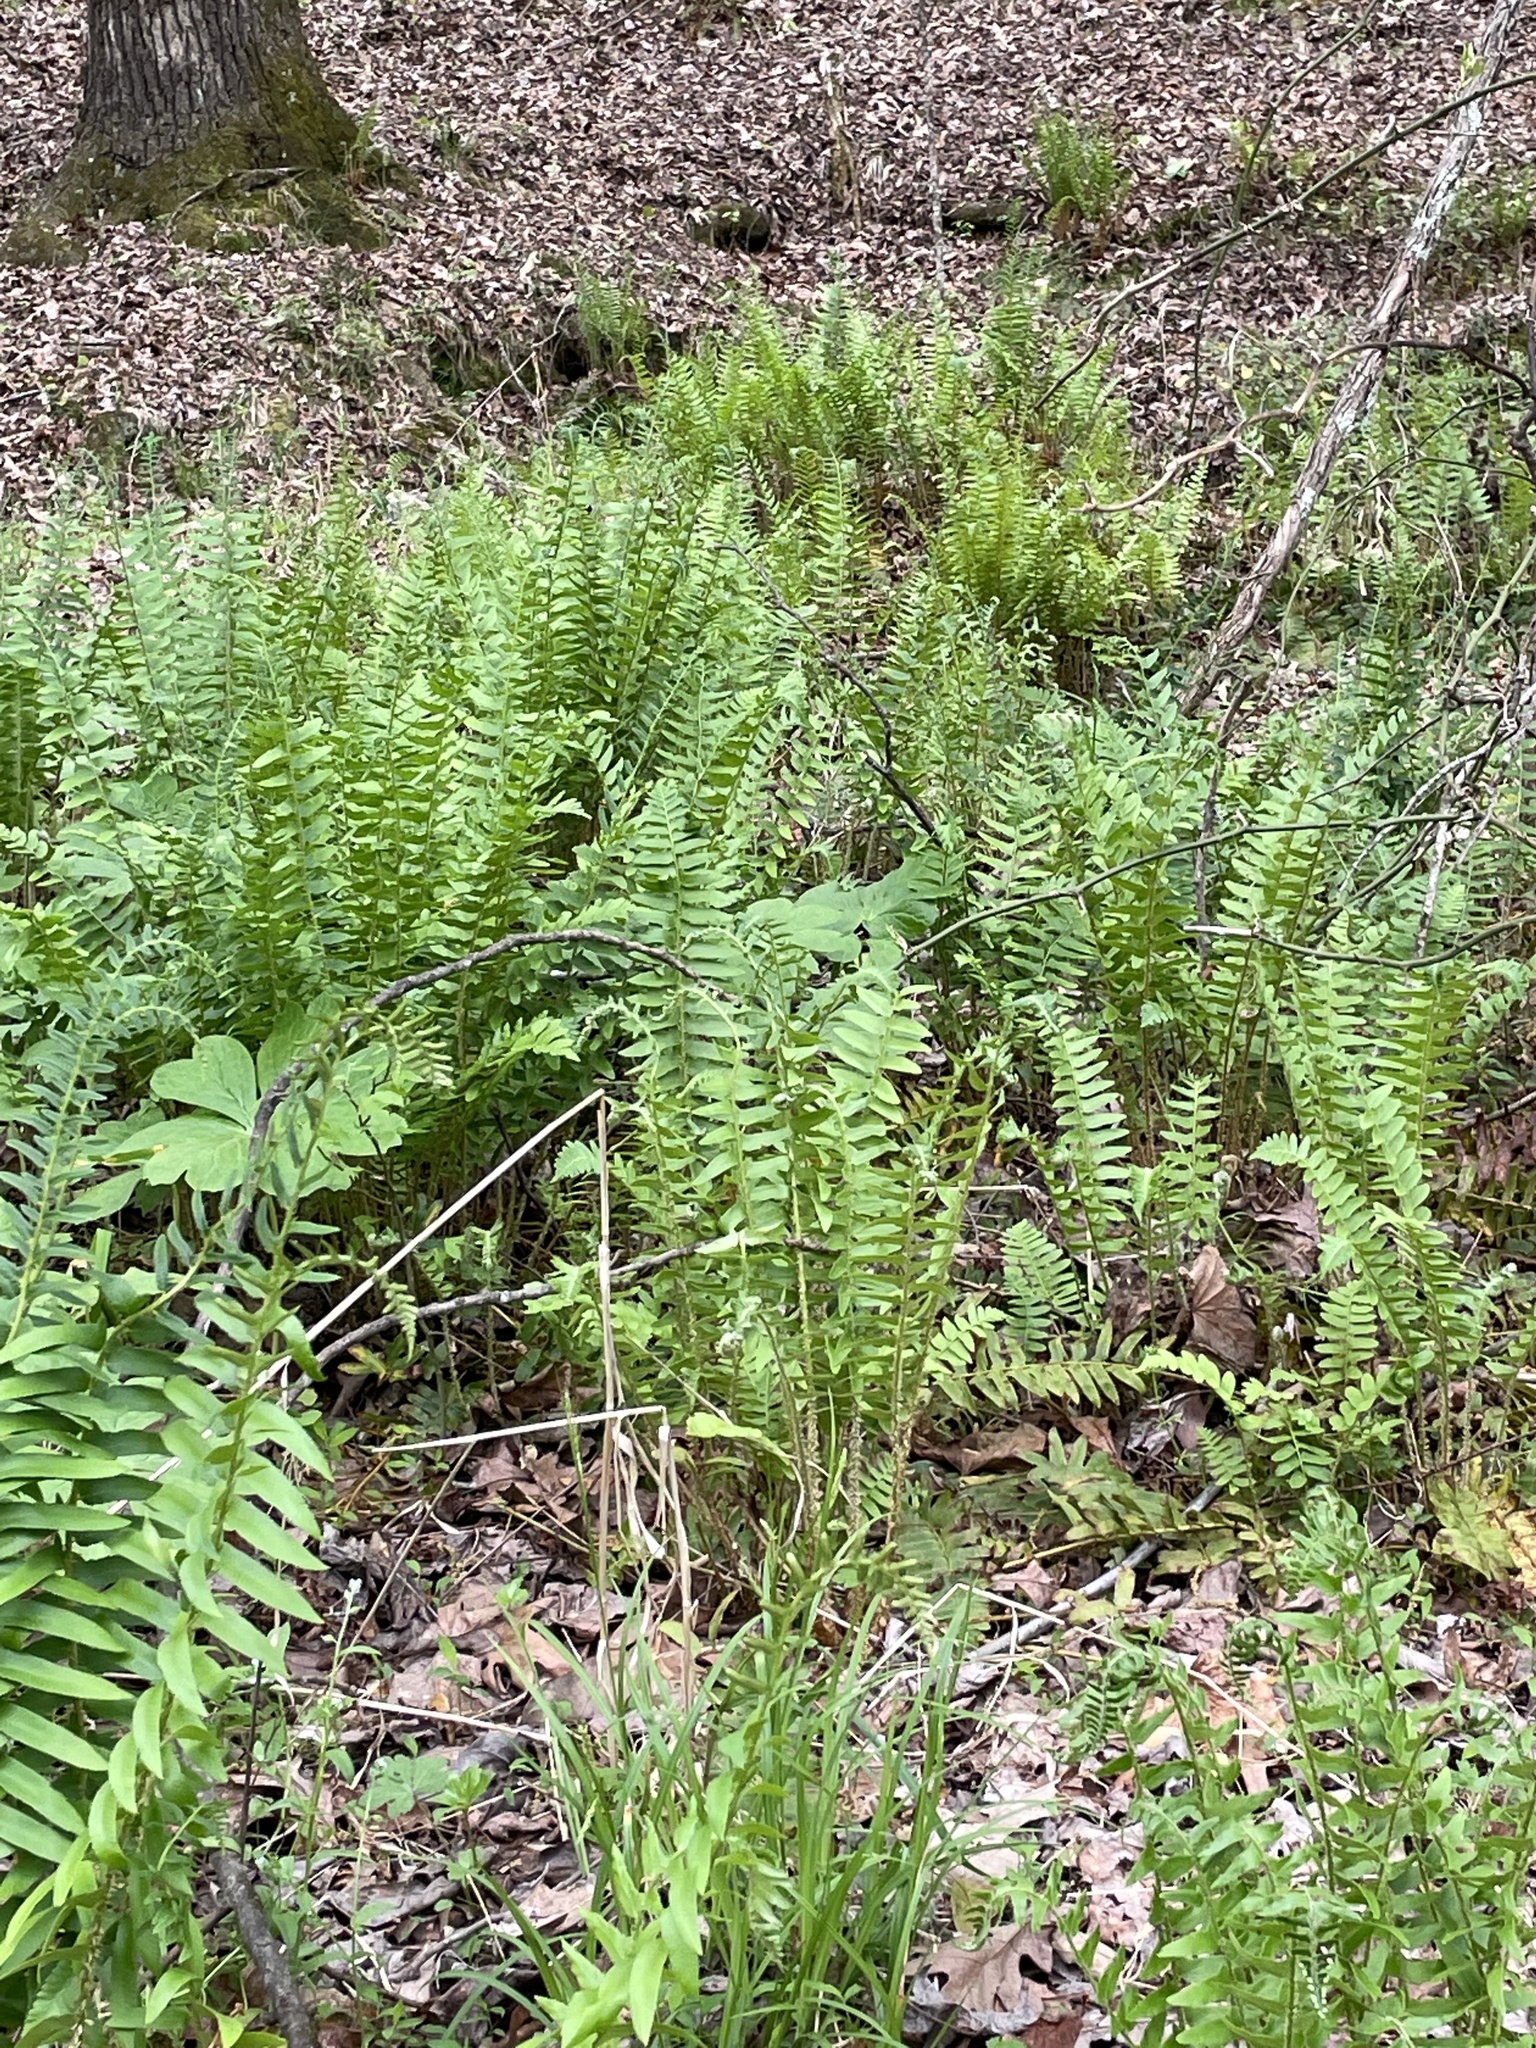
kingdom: Plantae
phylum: Tracheophyta
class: Polypodiopsida
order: Polypodiales
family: Dryopteridaceae
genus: Polystichum
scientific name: Polystichum acrostichoides
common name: Christmas fern
